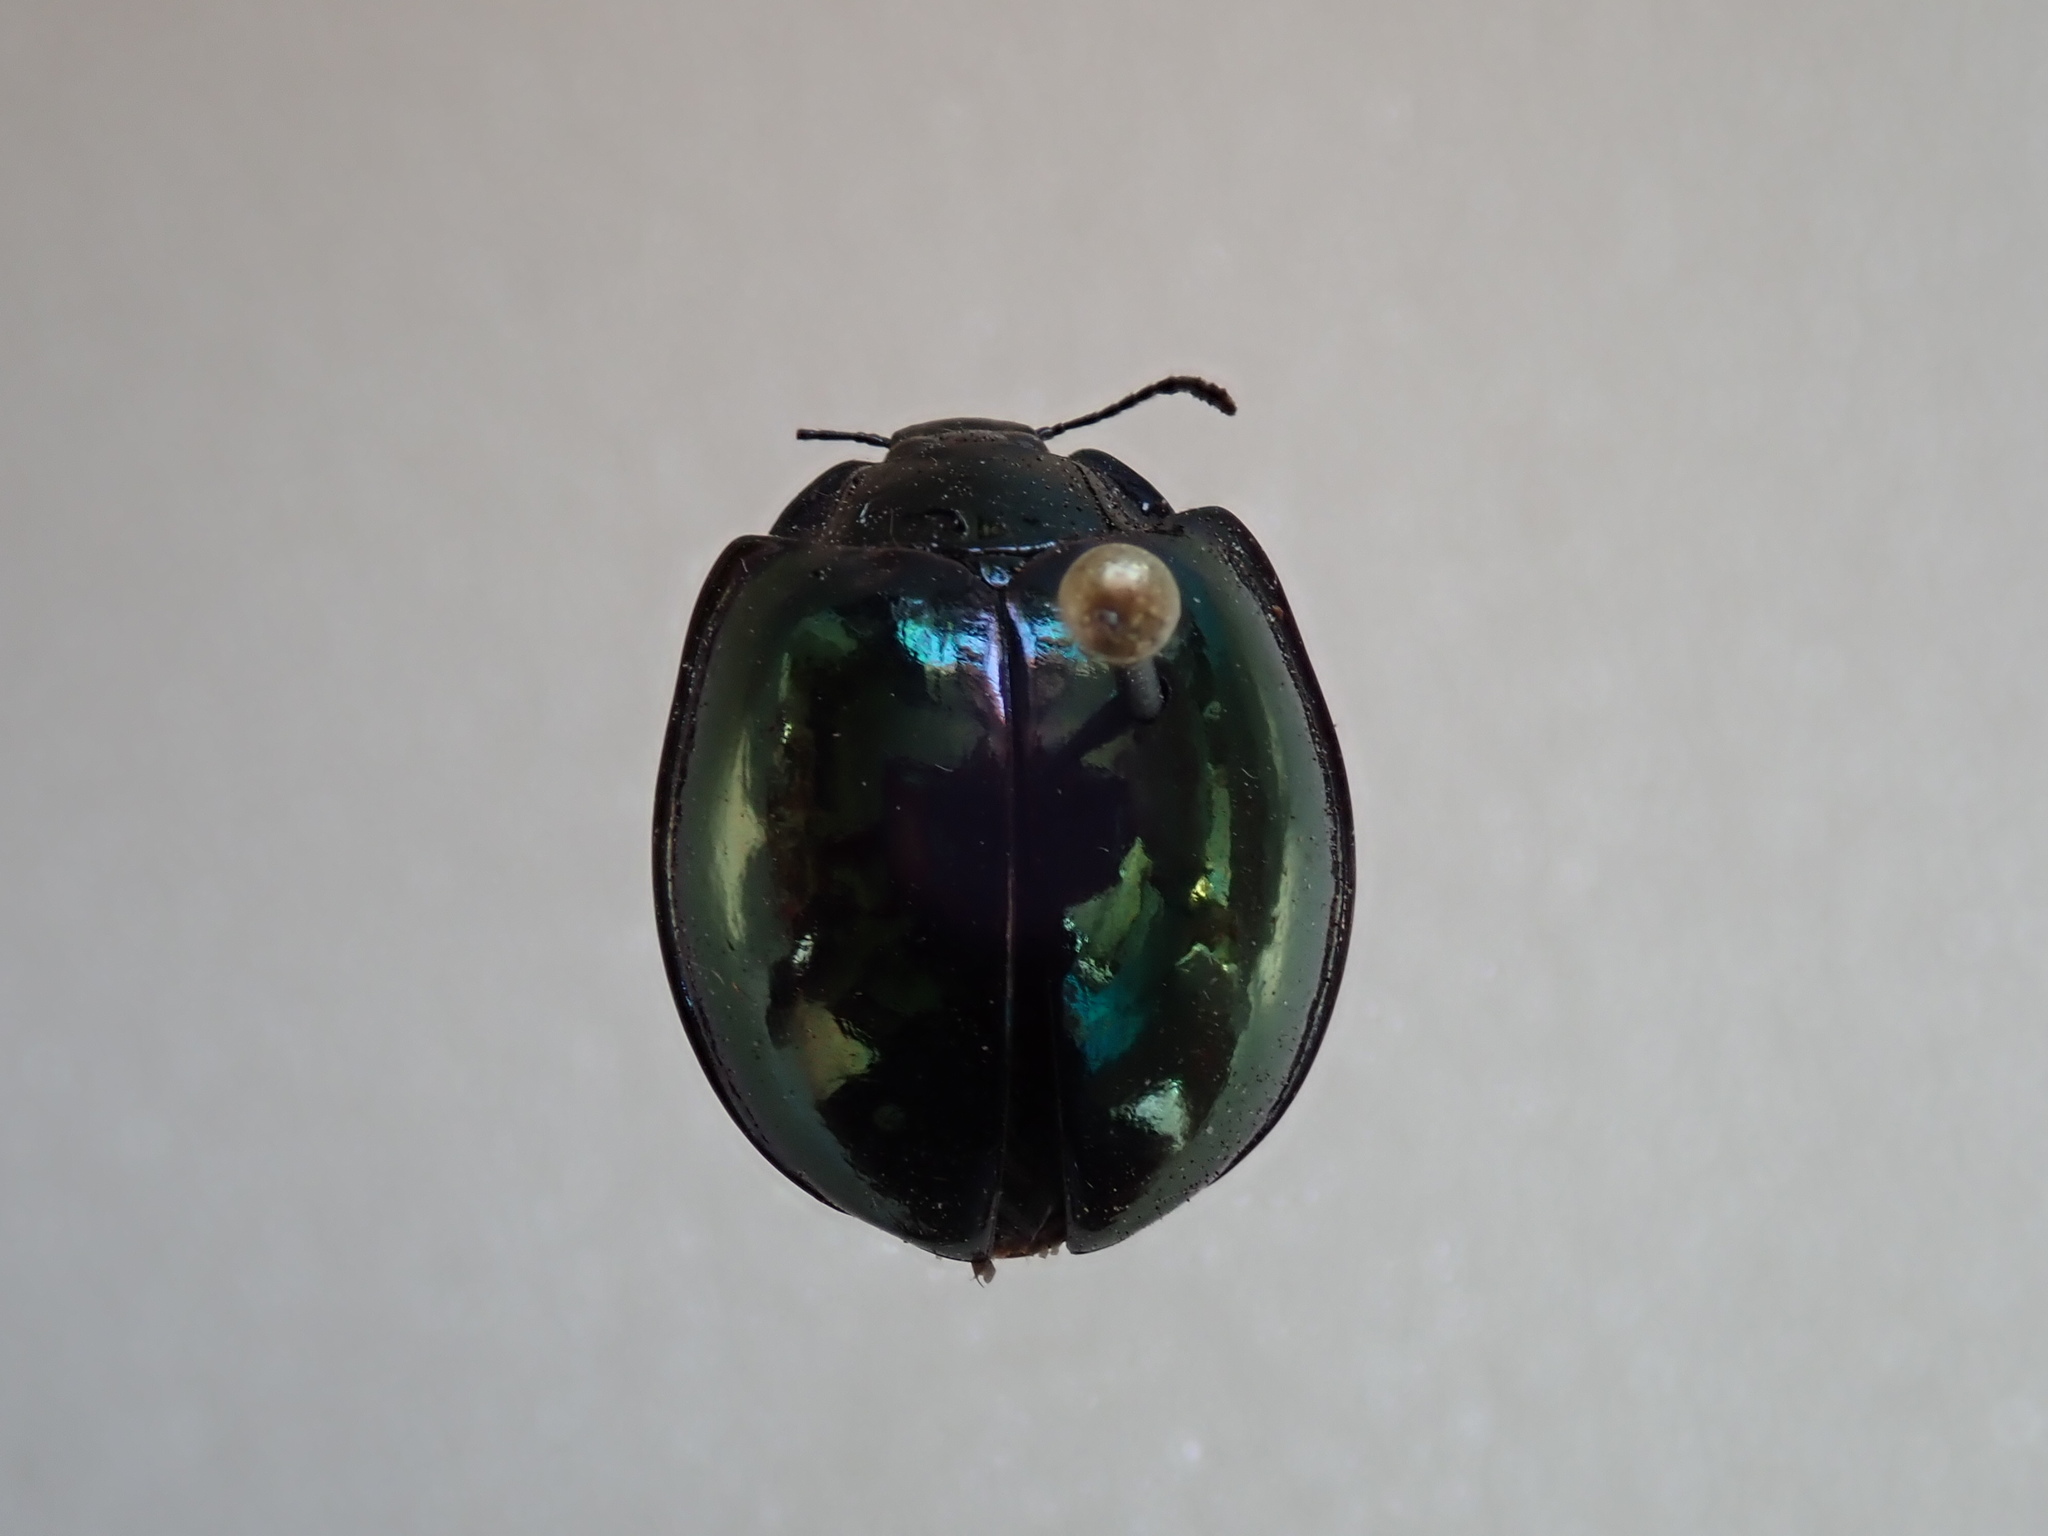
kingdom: Animalia
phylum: Arthropoda
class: Insecta
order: Coleoptera
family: Coccinellidae
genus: Halmus
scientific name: Halmus chalybeus
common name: Steel blue ladybird beetle
